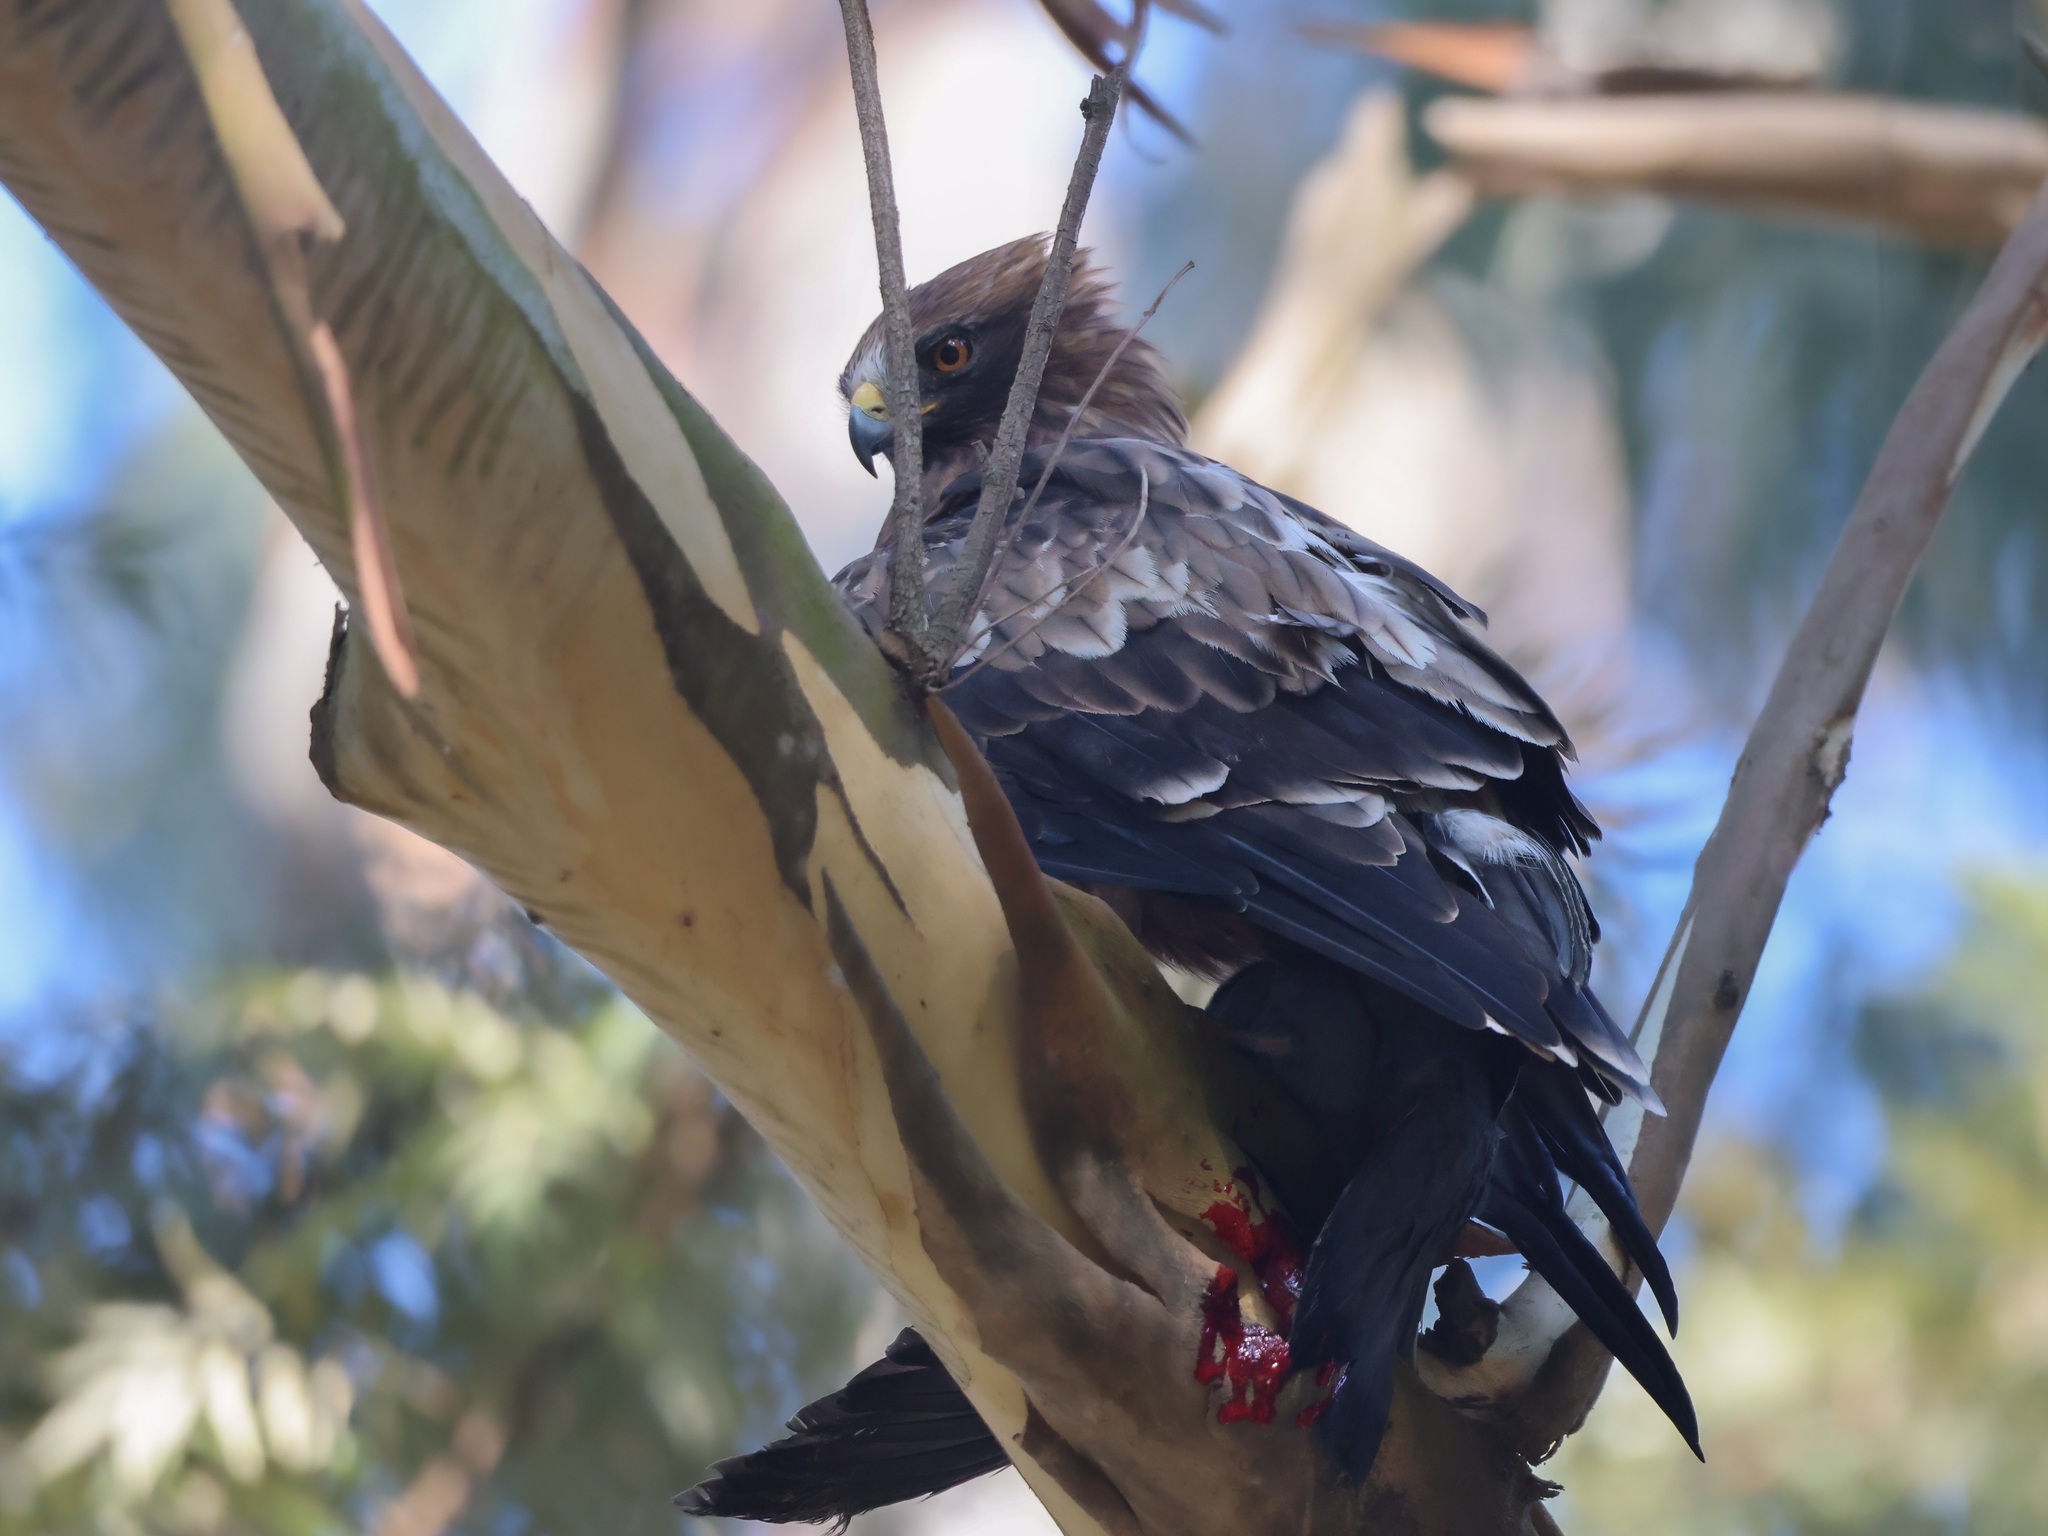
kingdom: Animalia
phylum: Chordata
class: Aves
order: Accipitriformes
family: Accipitridae
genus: Hieraaetus
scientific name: Hieraaetus pennatus
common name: Booted eagle
